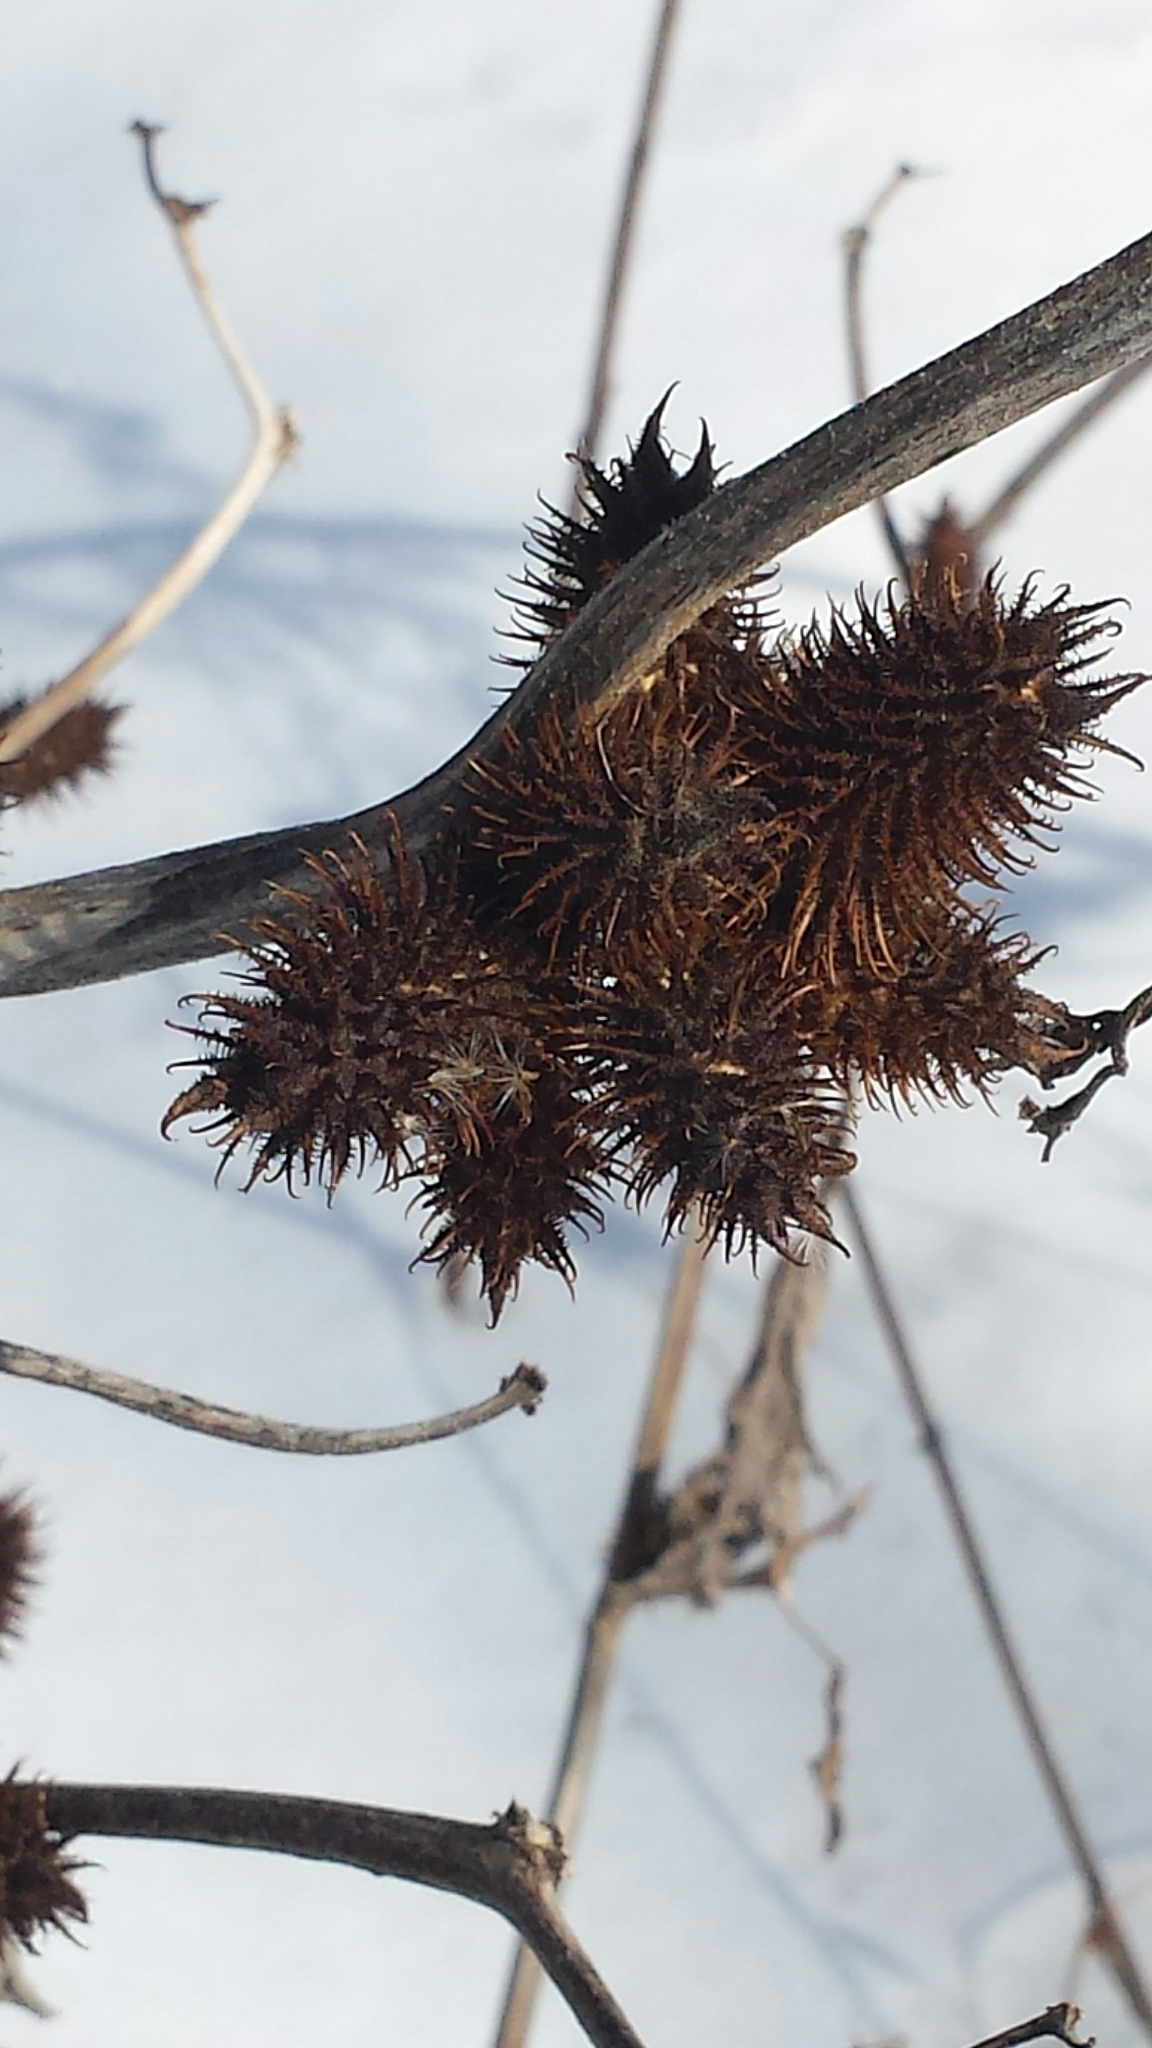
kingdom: Plantae
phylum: Tracheophyta
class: Magnoliopsida
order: Asterales
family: Asteraceae
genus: Xanthium
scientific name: Xanthium orientale
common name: Californian burr
